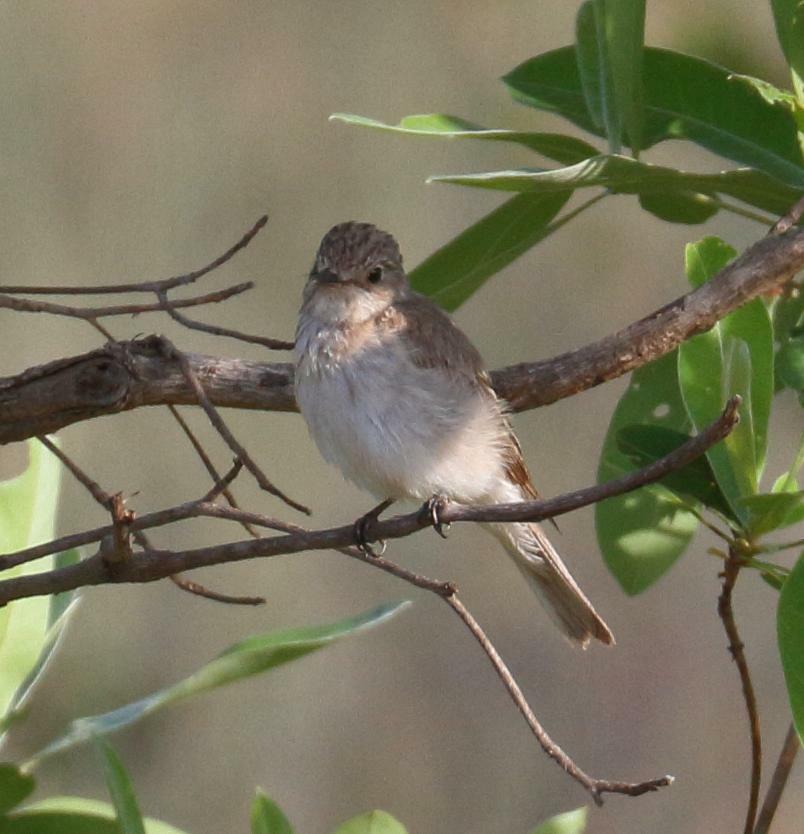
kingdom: Animalia
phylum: Chordata
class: Aves
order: Passeriformes
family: Muscicapidae
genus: Muscicapa
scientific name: Muscicapa striata
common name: Spotted flycatcher
